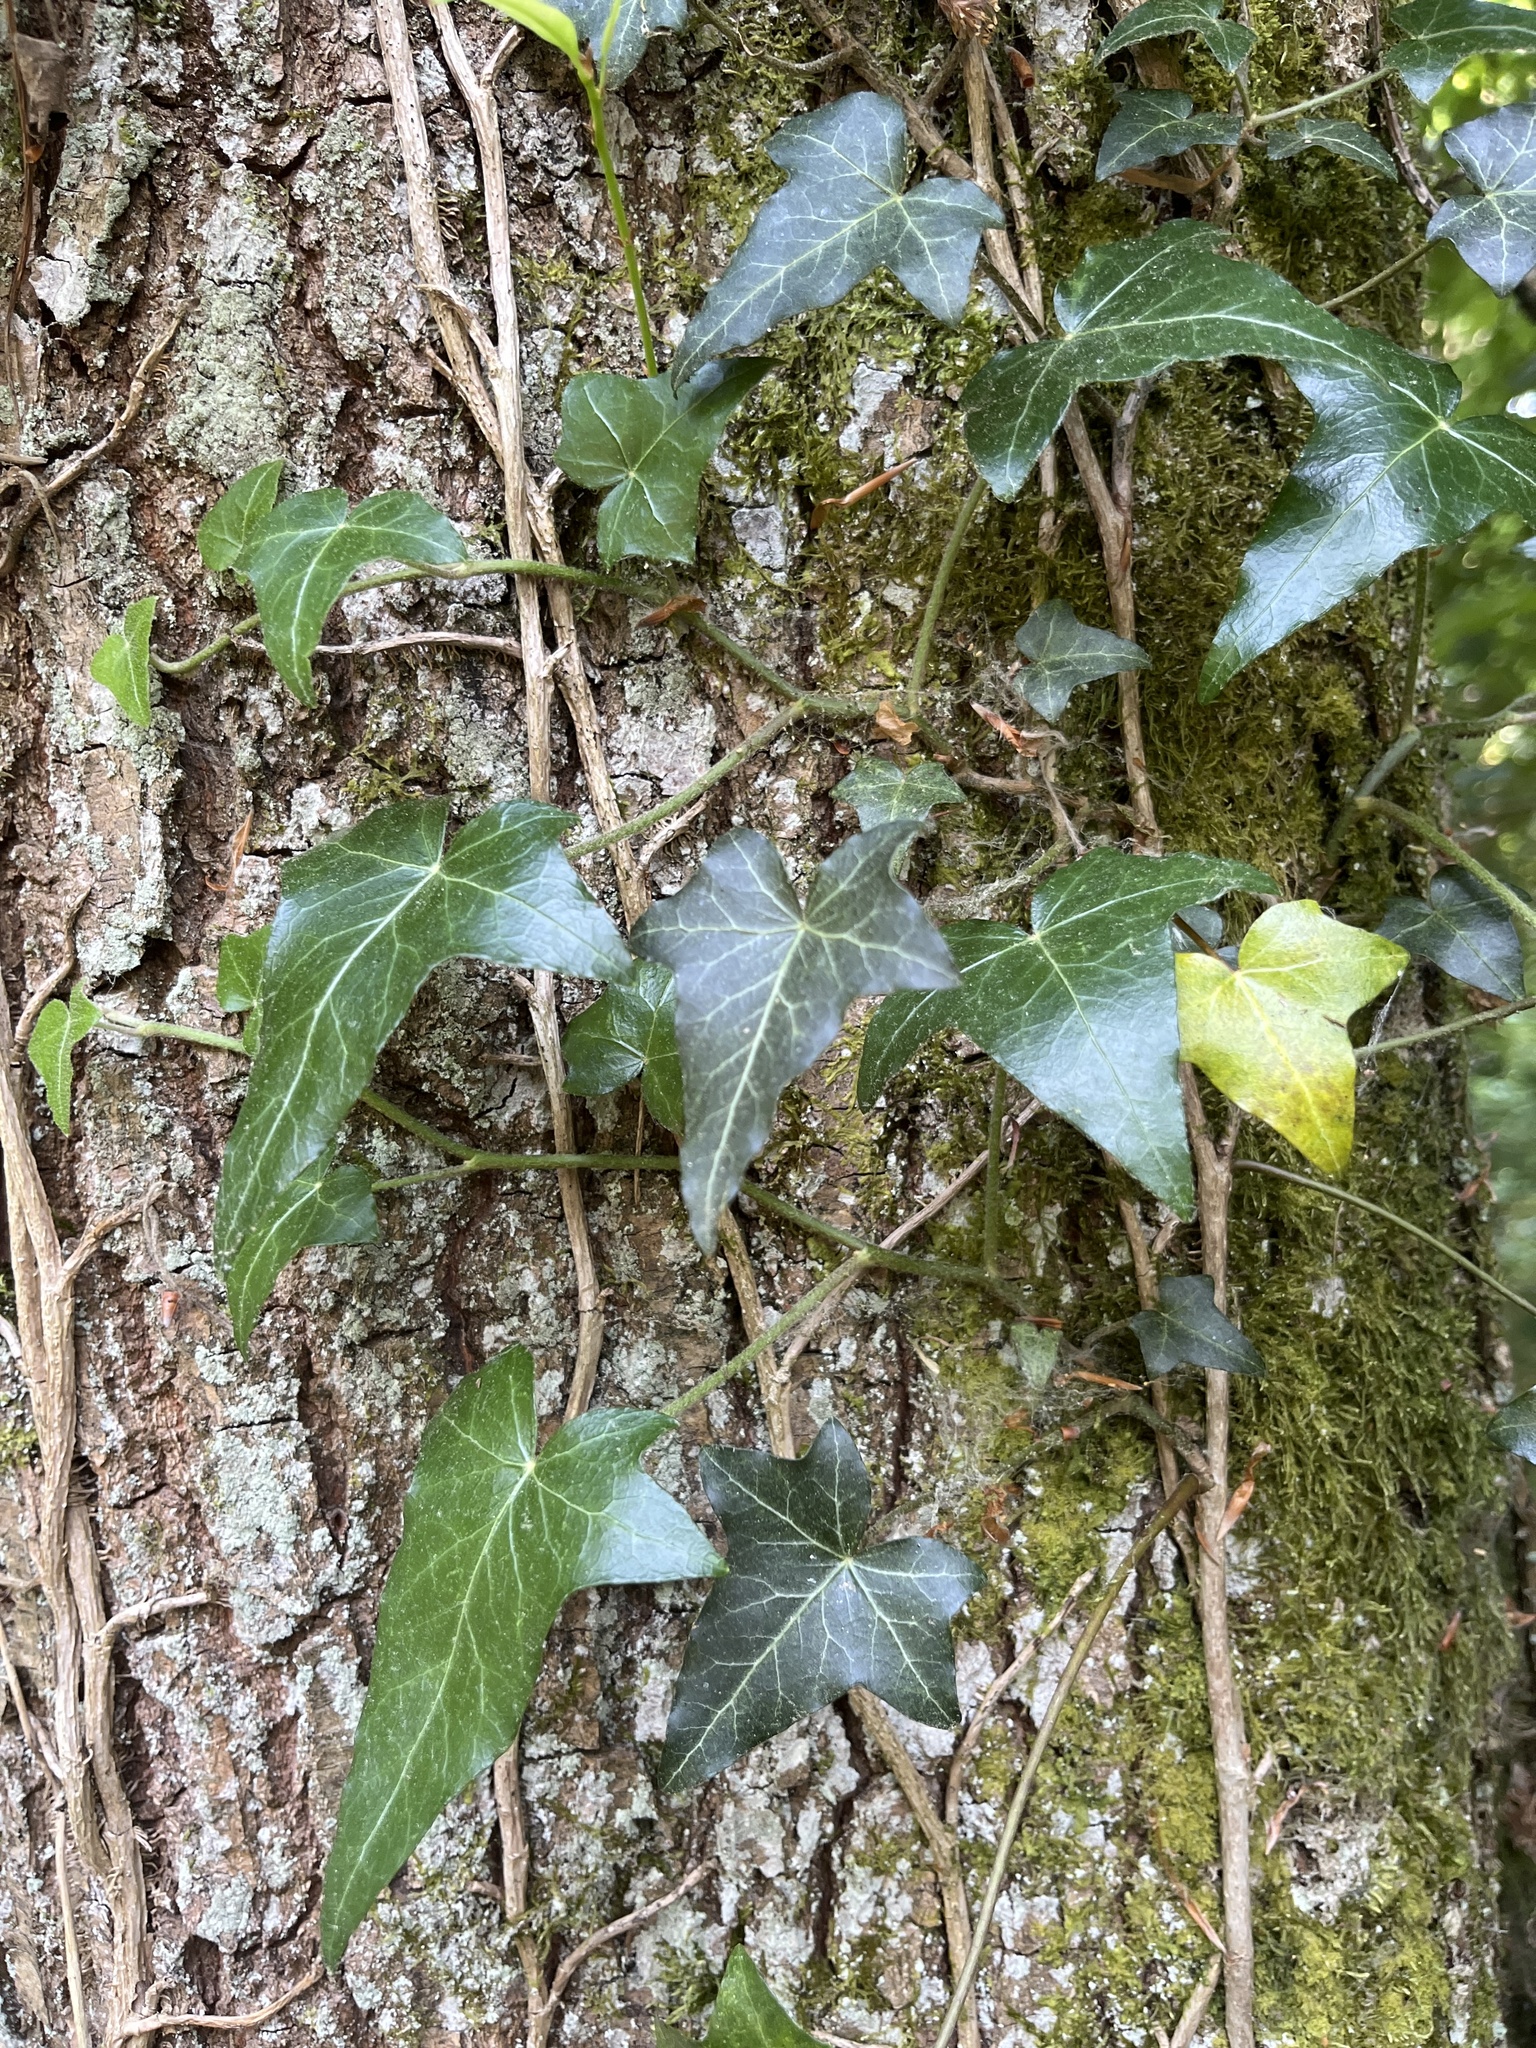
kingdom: Plantae
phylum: Tracheophyta
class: Magnoliopsida
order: Apiales
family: Araliaceae
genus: Hedera
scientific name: Hedera helix
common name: Ivy
